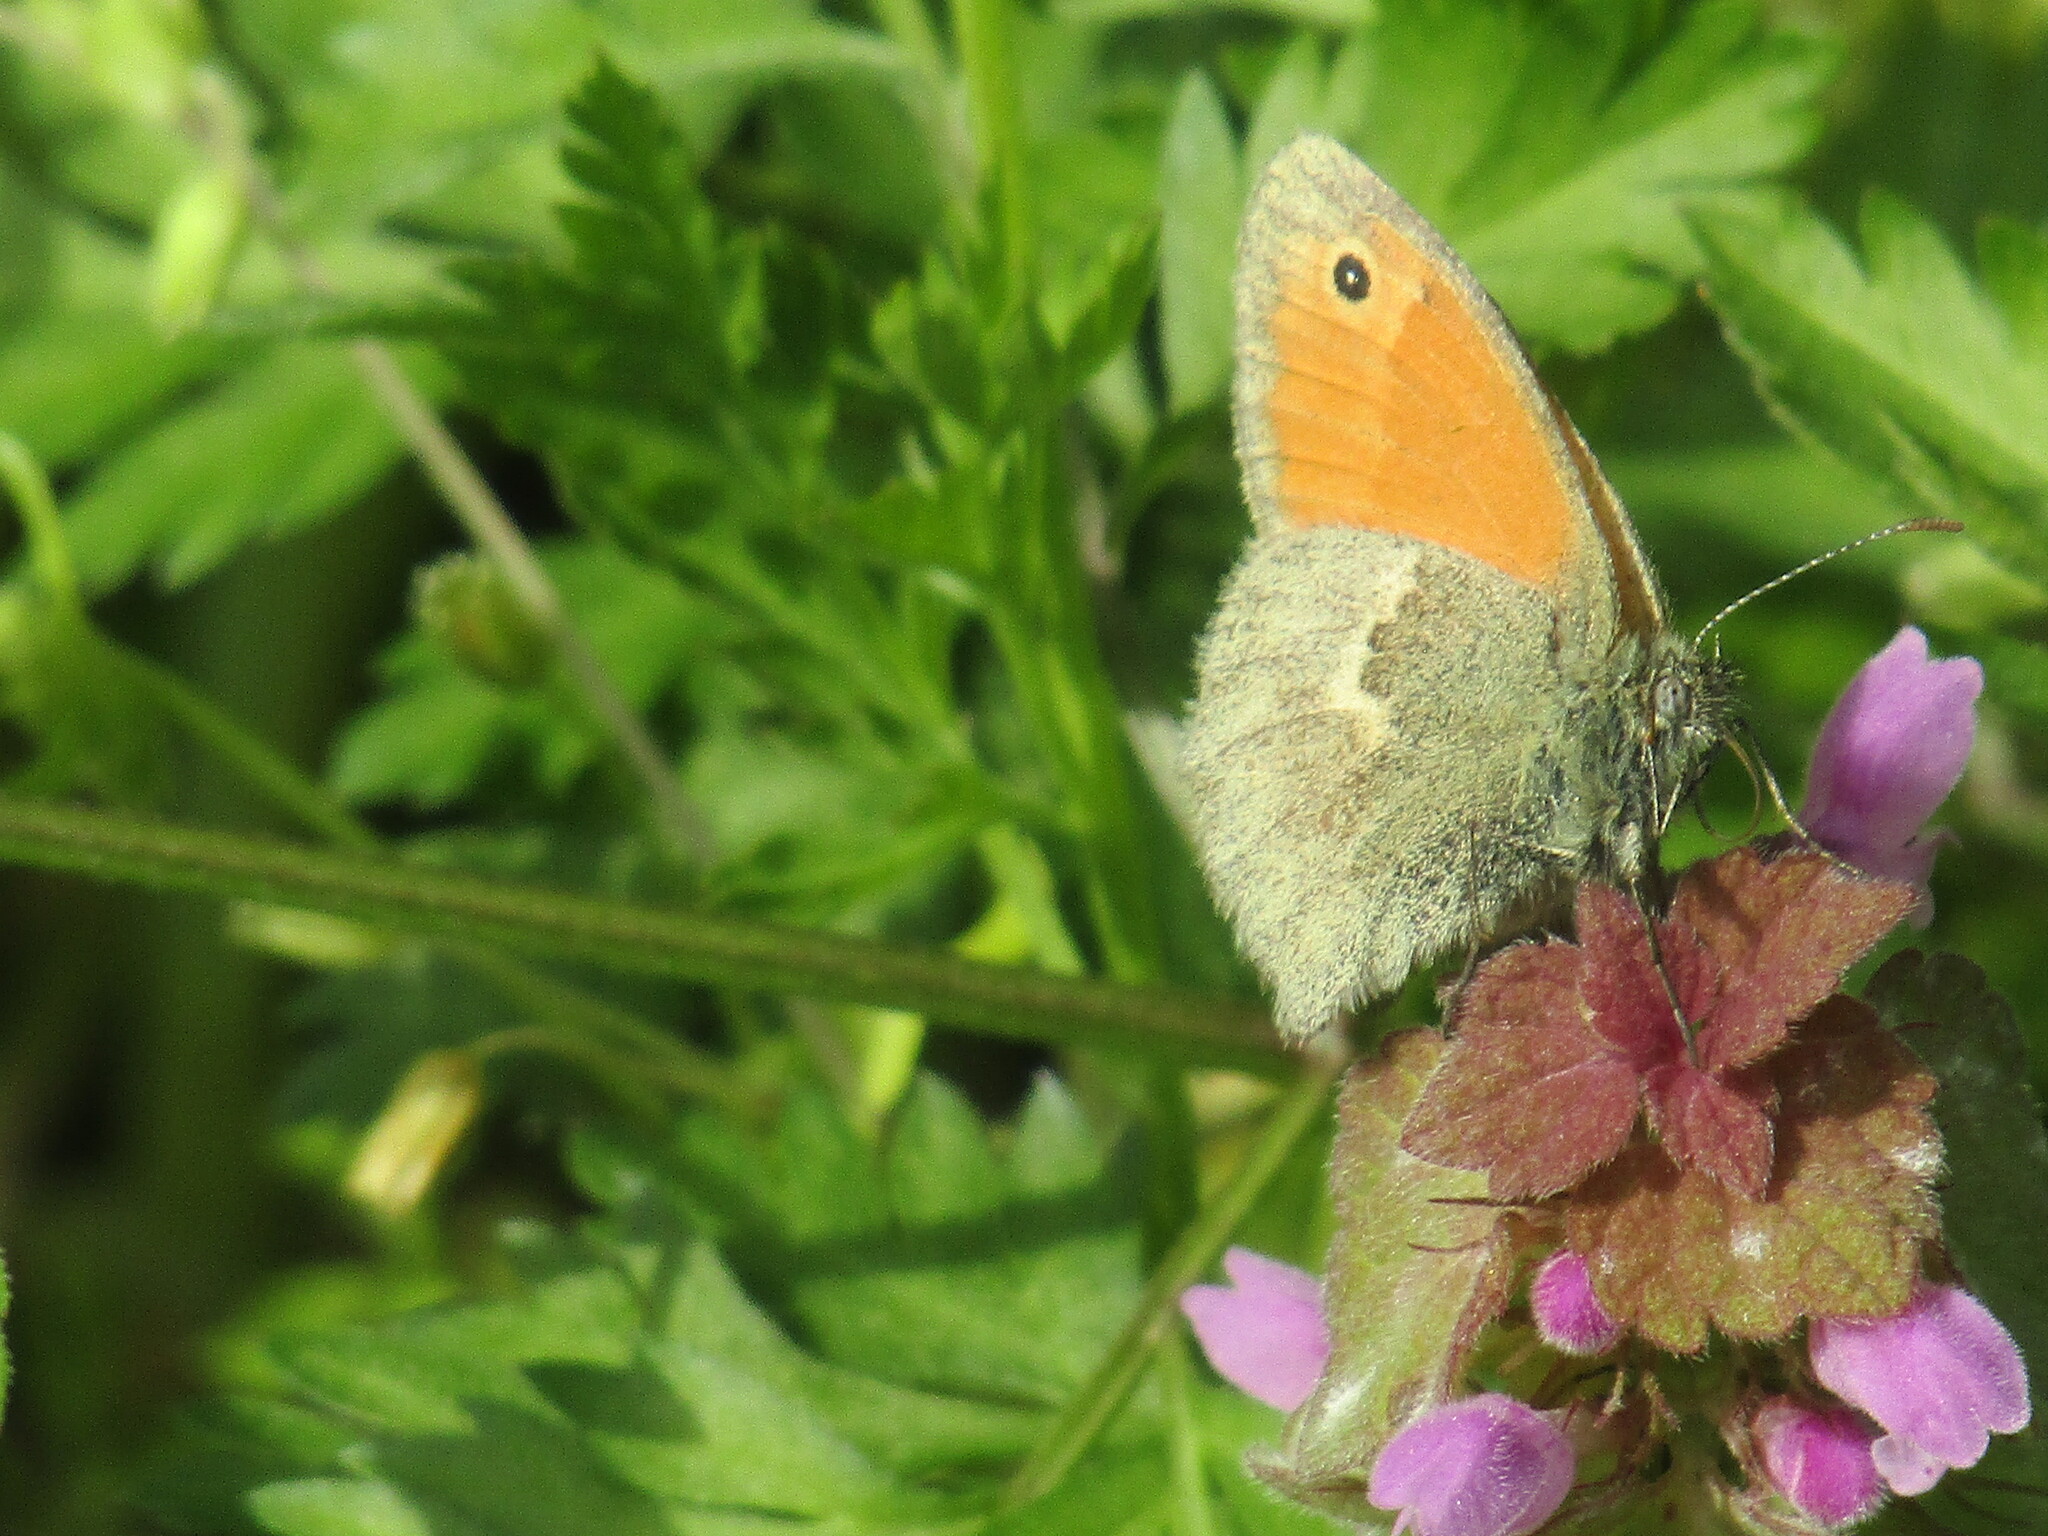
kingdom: Animalia
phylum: Arthropoda
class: Insecta
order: Lepidoptera
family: Nymphalidae
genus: Coenonympha
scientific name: Coenonympha pamphilus
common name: Small heath
